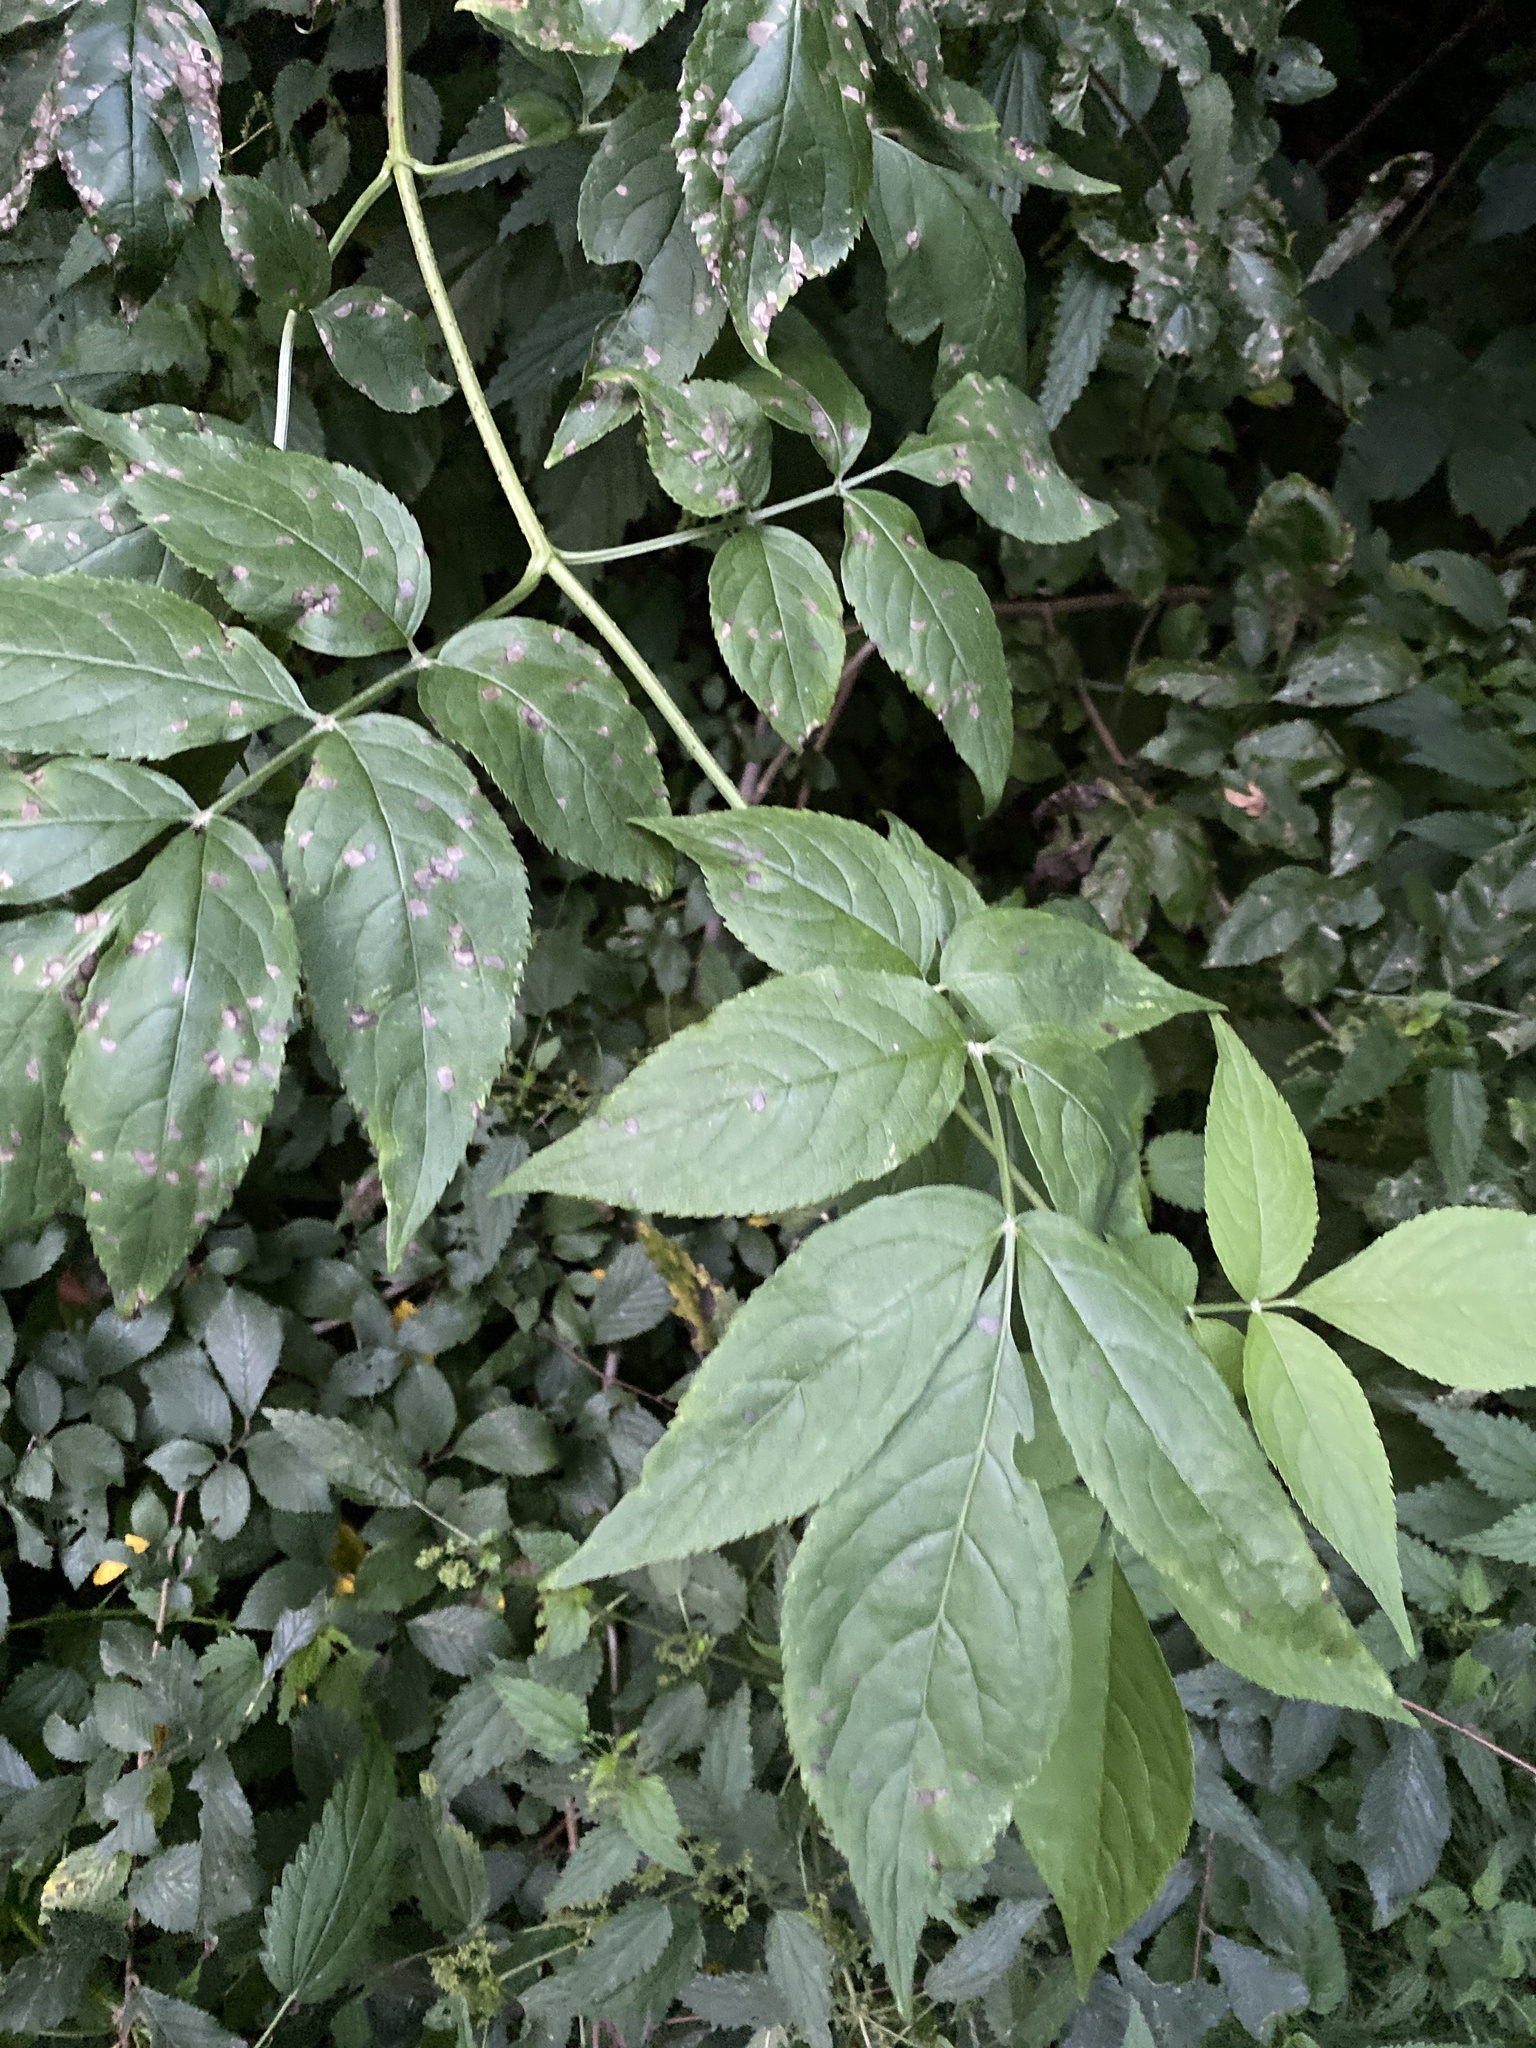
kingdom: Plantae
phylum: Tracheophyta
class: Magnoliopsida
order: Dipsacales
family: Viburnaceae
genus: Sambucus
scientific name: Sambucus nigra
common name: Elder
